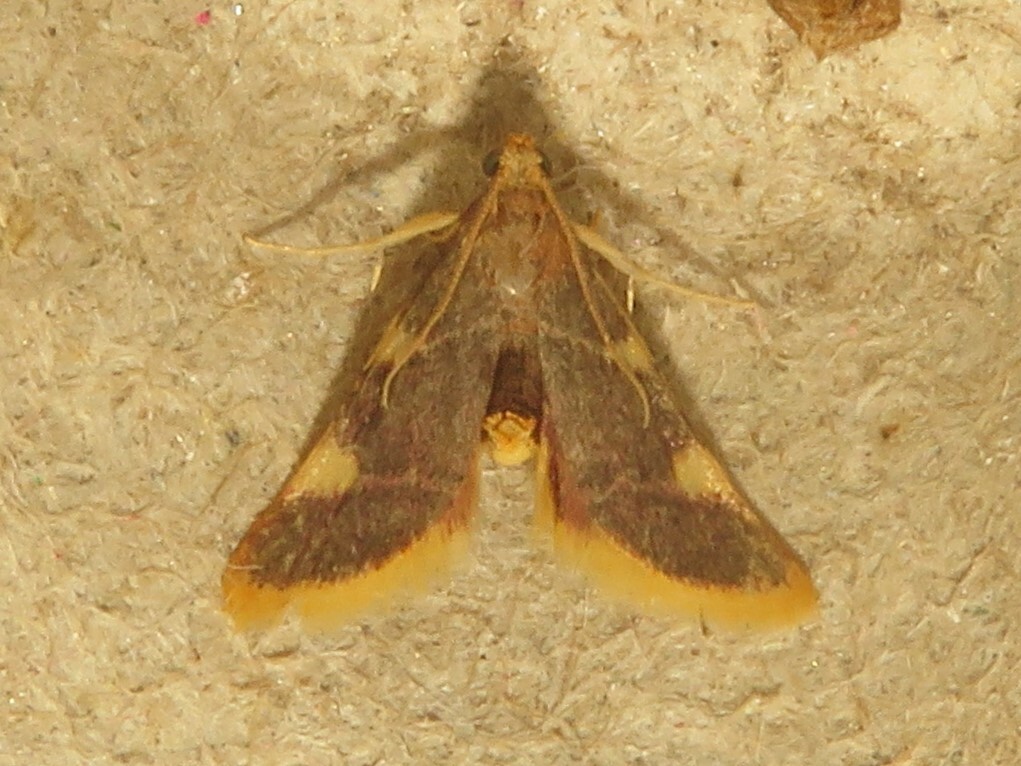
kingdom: Animalia
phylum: Arthropoda
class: Insecta
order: Lepidoptera
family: Pyralidae
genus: Hypsopygia
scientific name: Hypsopygia costalis
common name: Gold triangle
